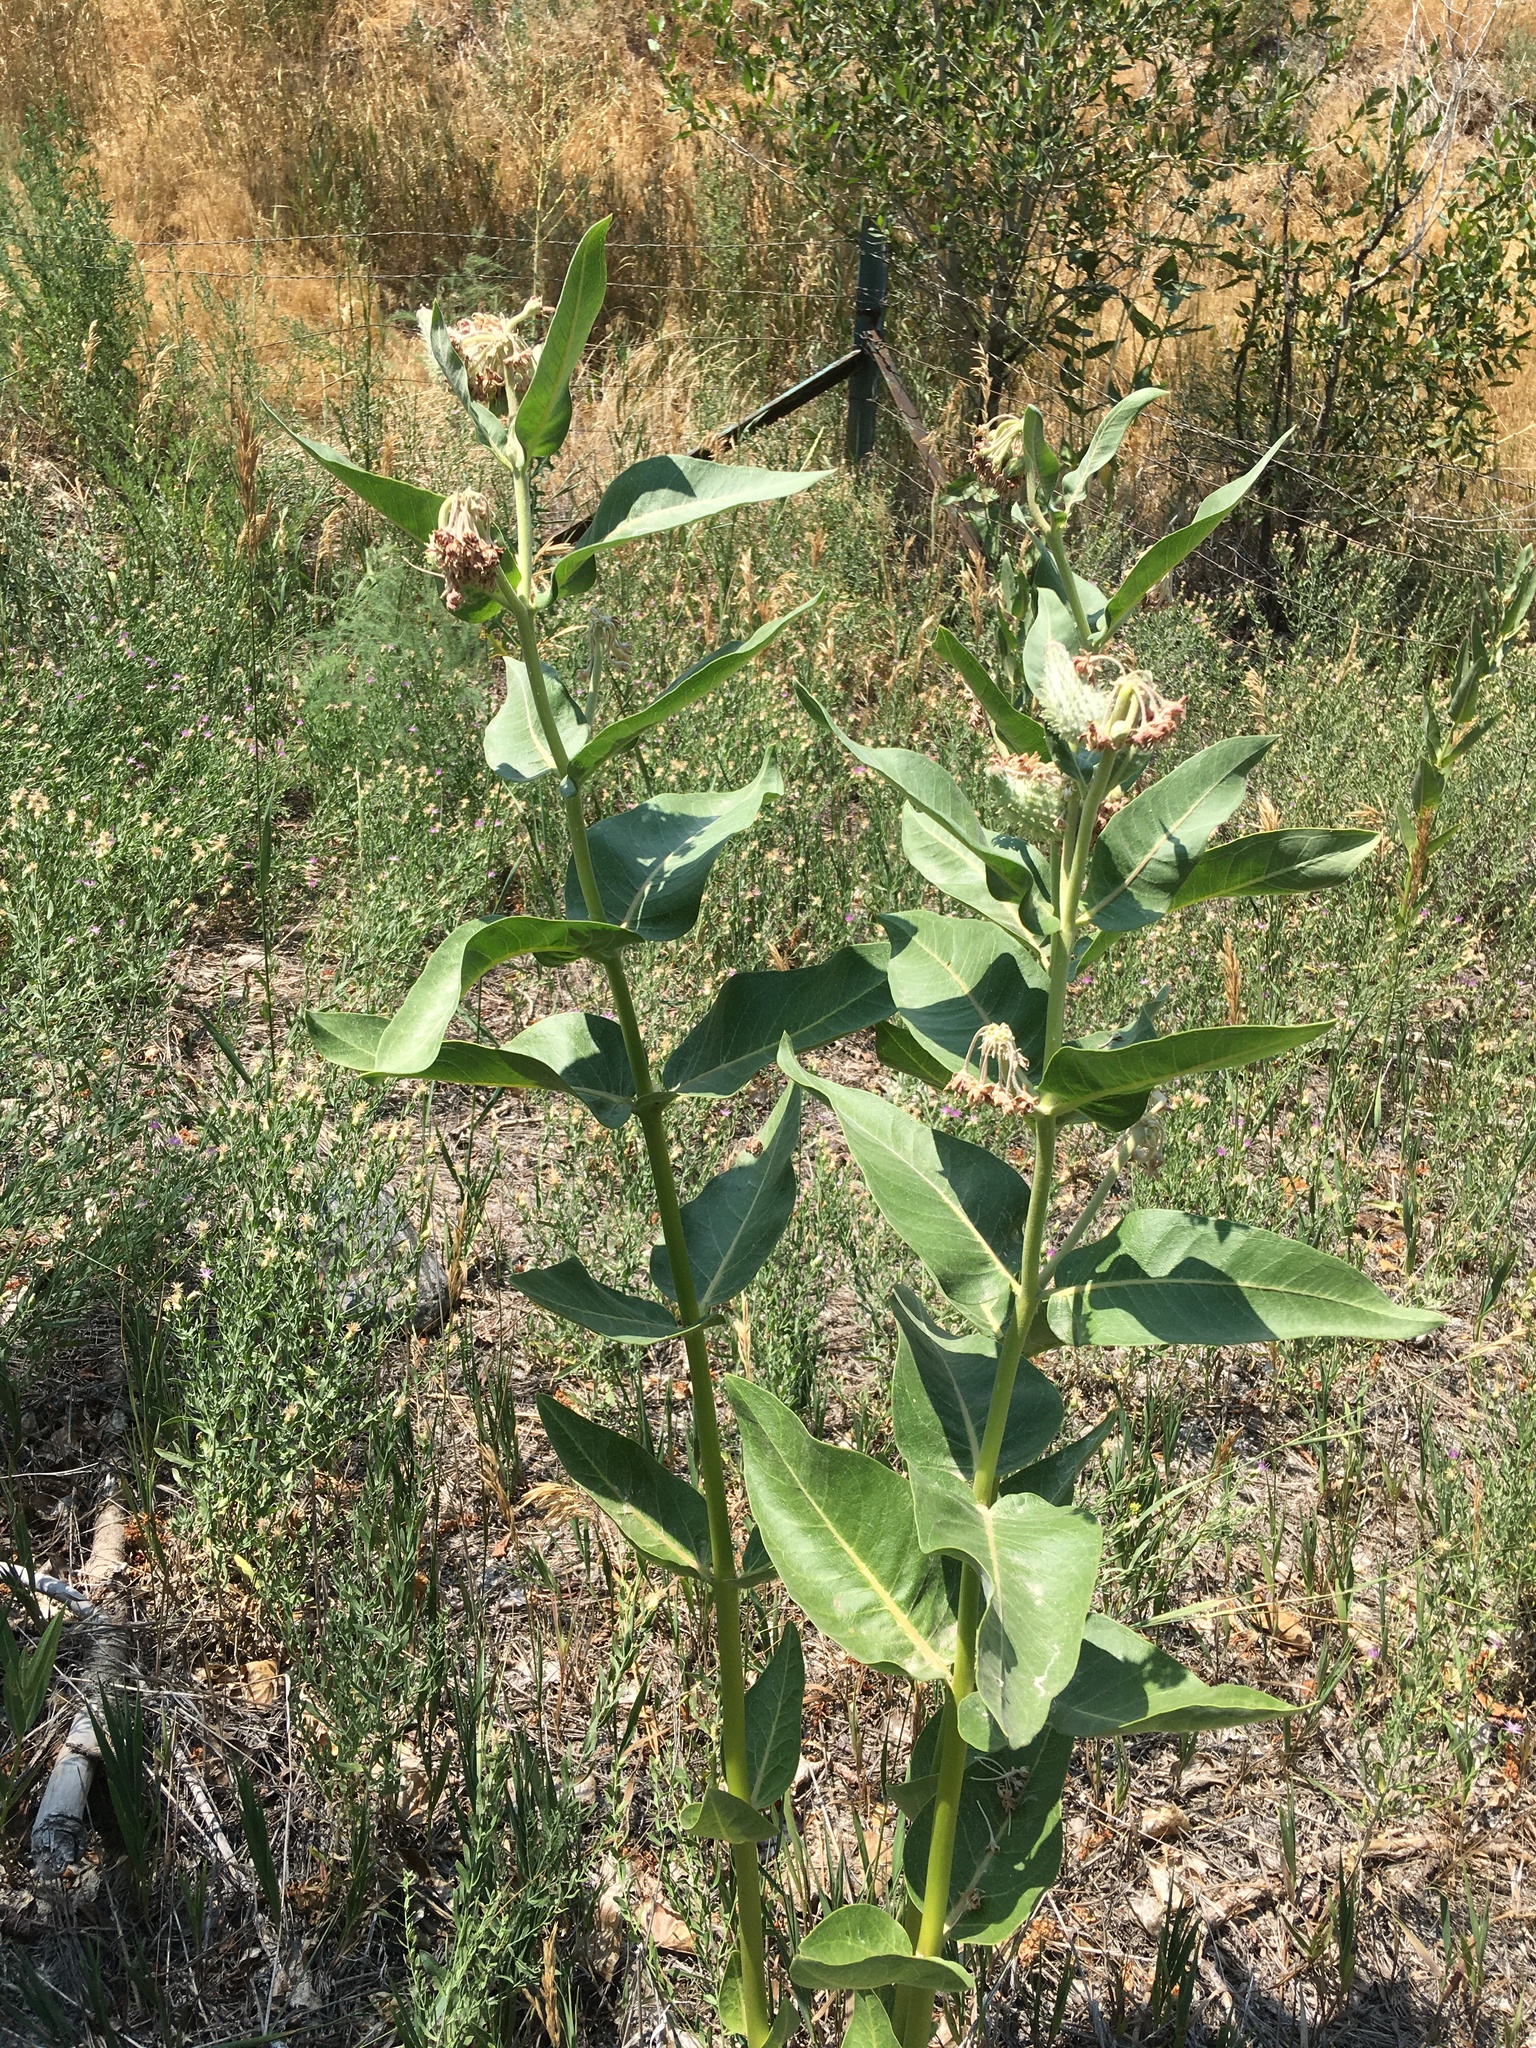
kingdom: Plantae
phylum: Tracheophyta
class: Magnoliopsida
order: Gentianales
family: Apocynaceae
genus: Asclepias
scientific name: Asclepias speciosa
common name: Showy milkweed
